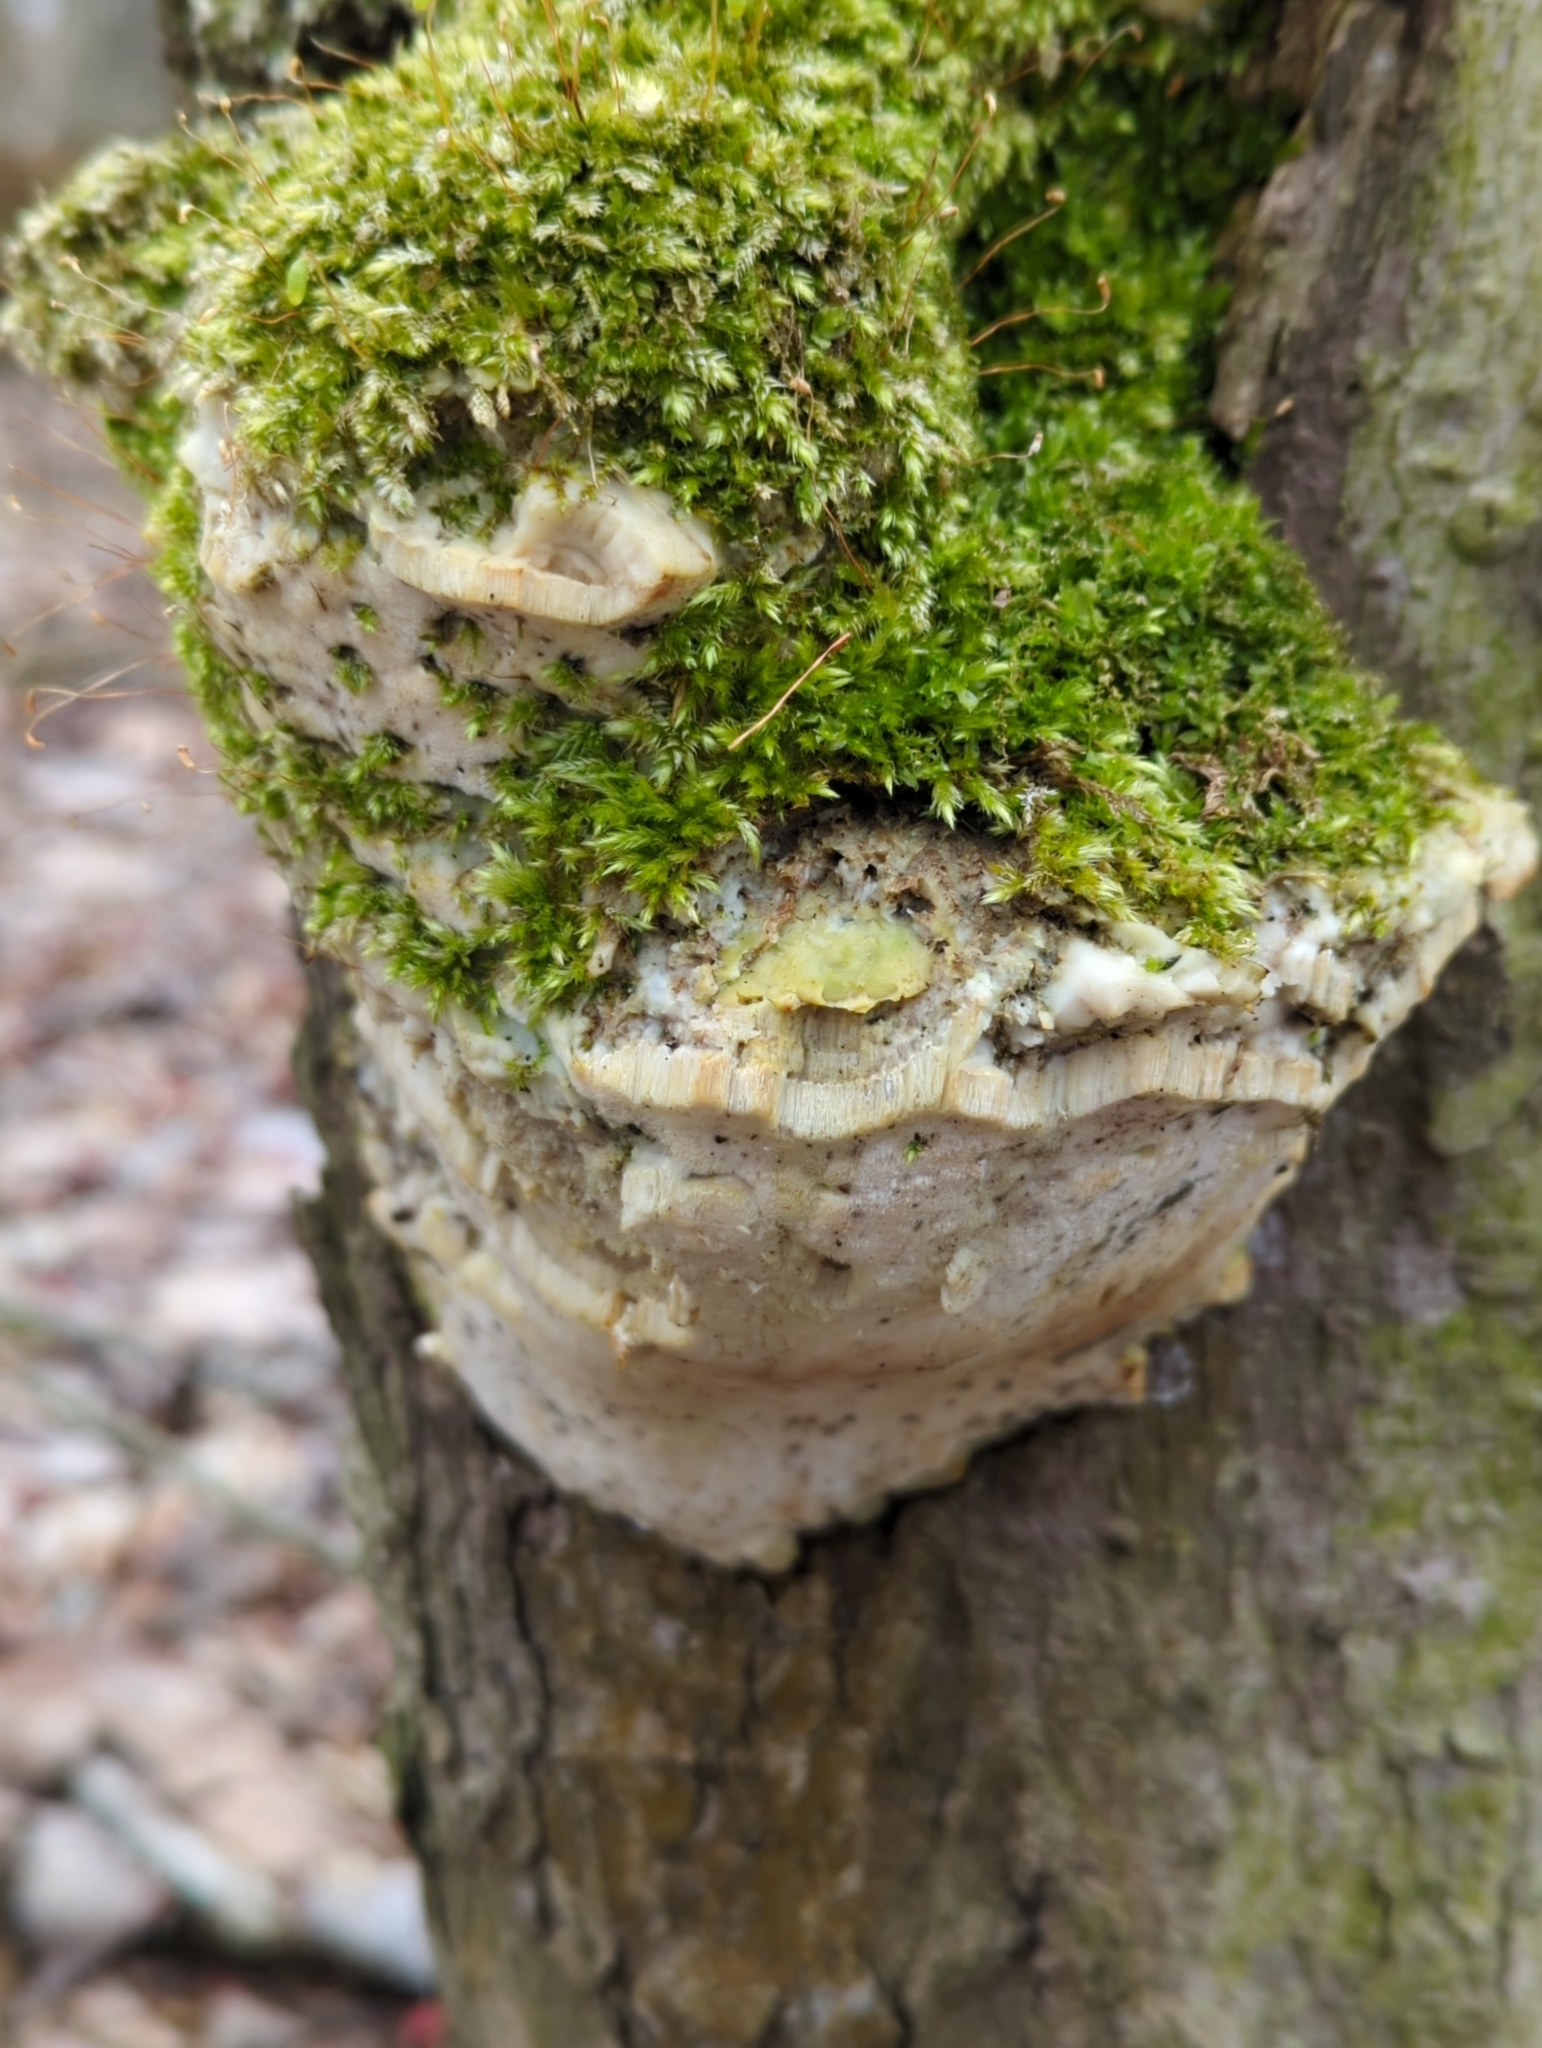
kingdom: Fungi
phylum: Basidiomycota
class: Agaricomycetes
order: Hymenochaetales
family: Oxyporaceae
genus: Oxyporus
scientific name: Oxyporus populinus
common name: Poplar bracket
